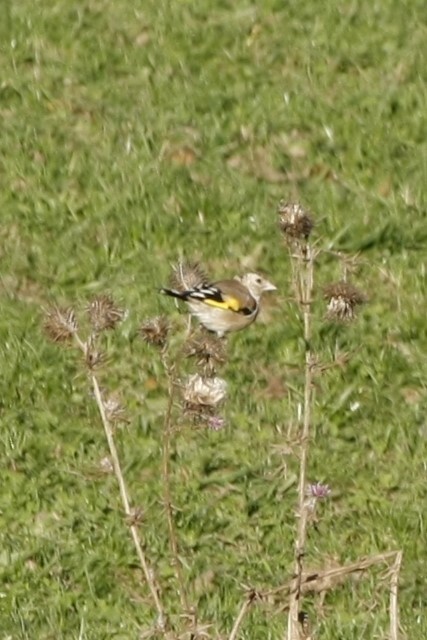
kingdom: Animalia
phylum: Chordata
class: Aves
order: Passeriformes
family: Fringillidae
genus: Carduelis
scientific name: Carduelis carduelis
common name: European goldfinch
